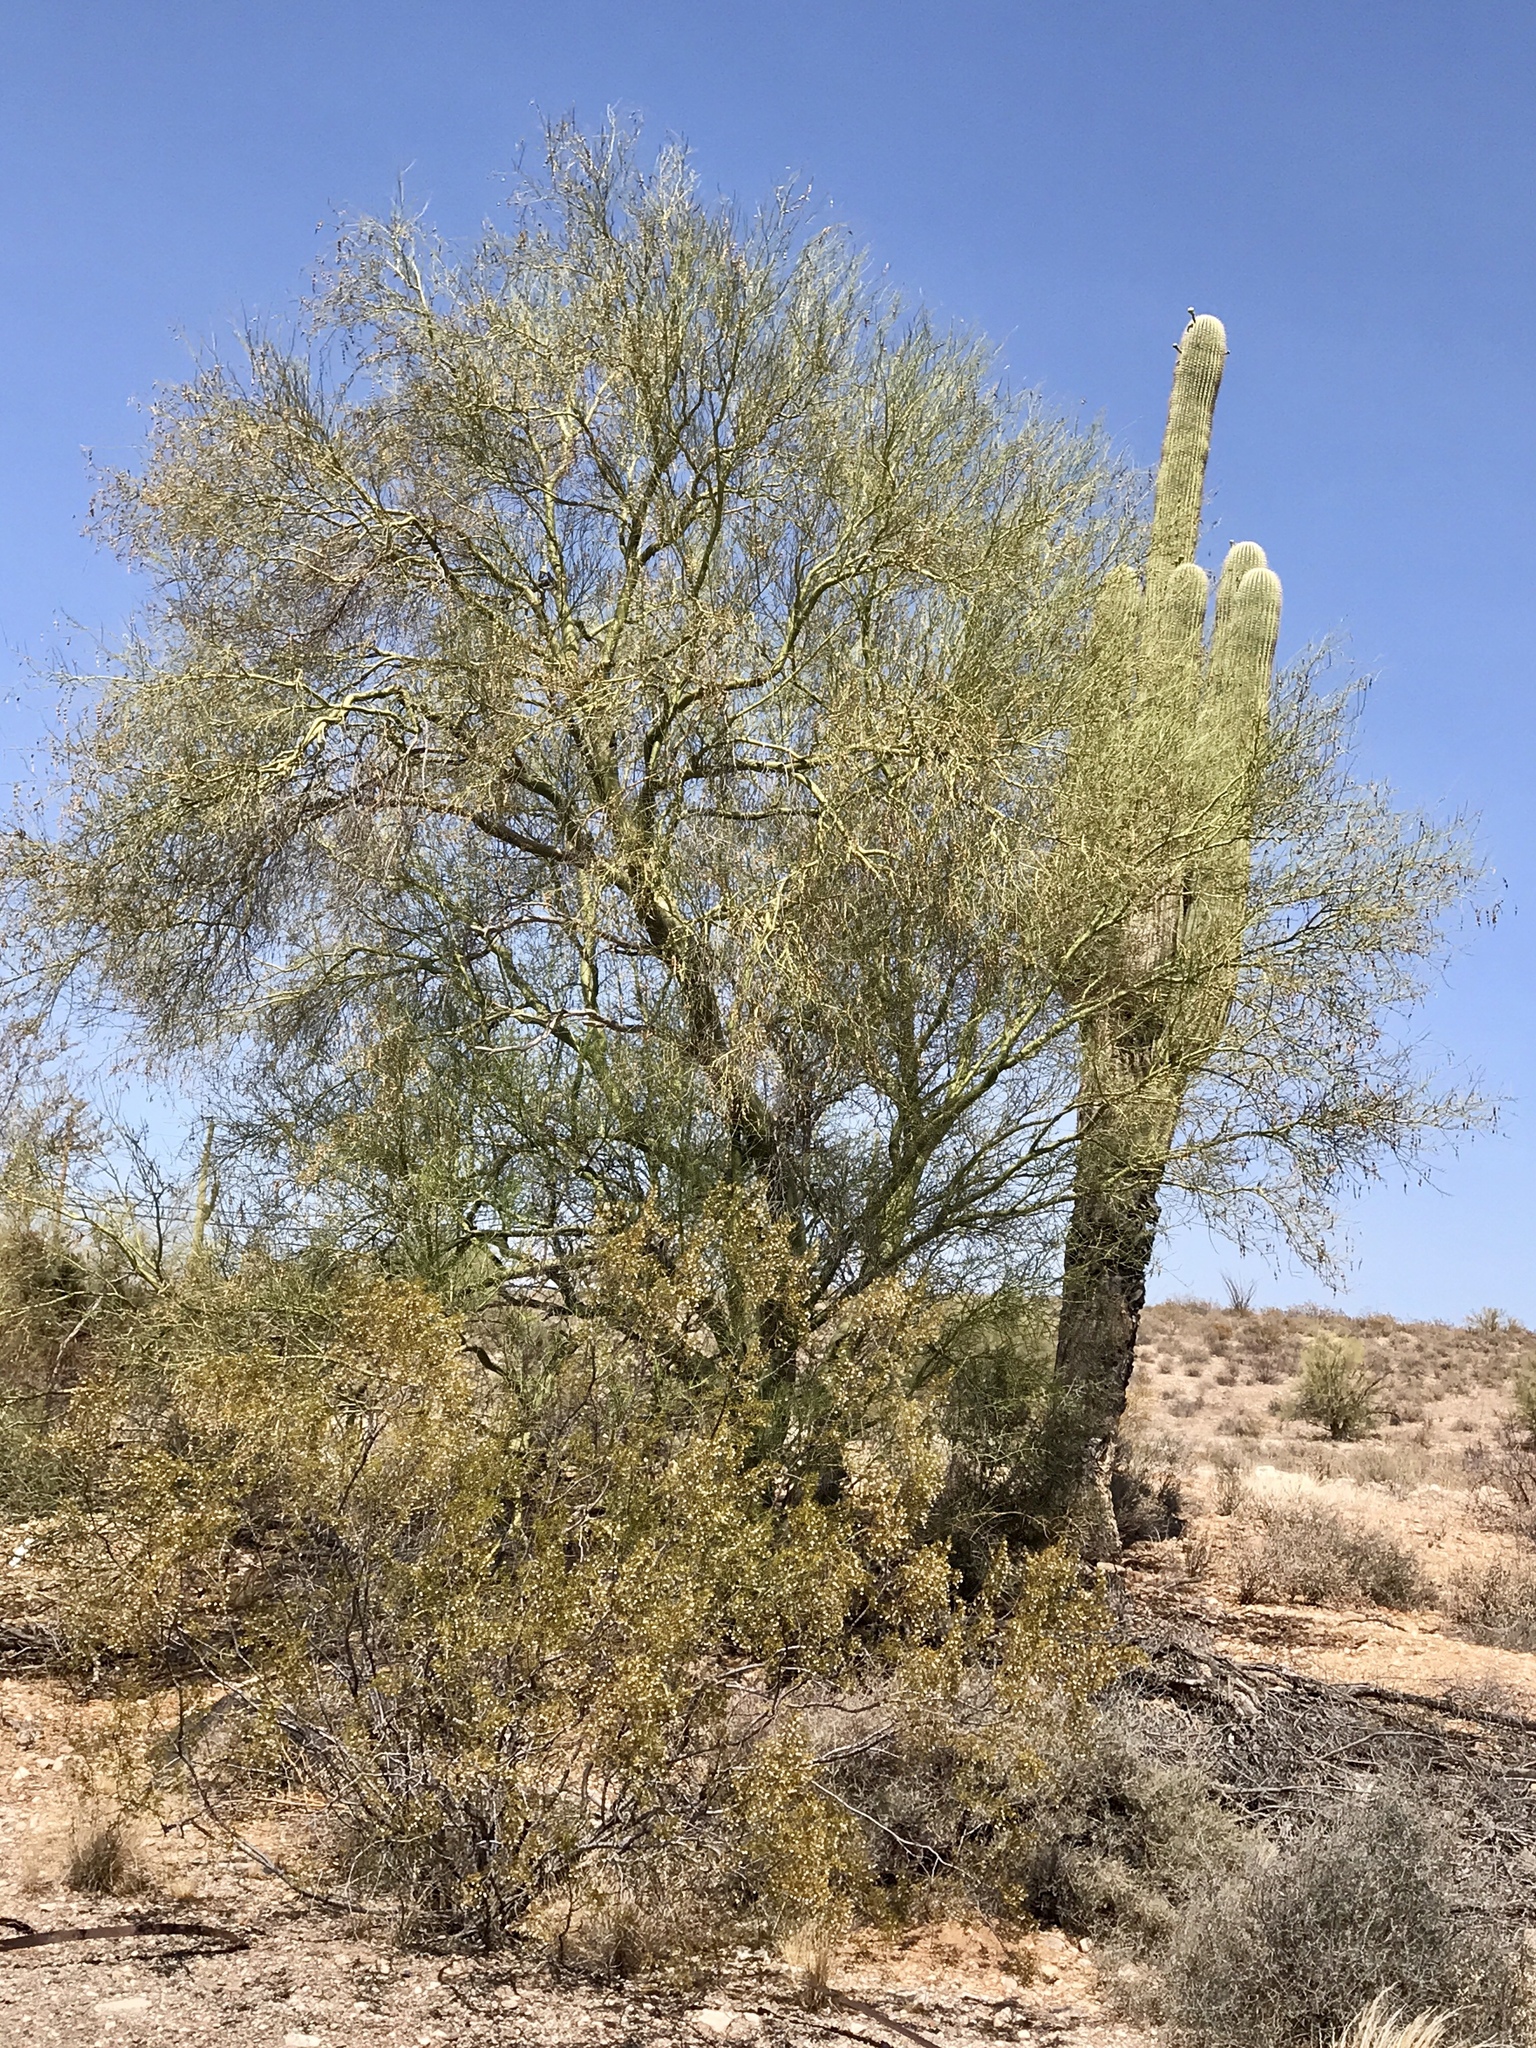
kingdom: Plantae
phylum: Tracheophyta
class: Magnoliopsida
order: Fabales
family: Fabaceae
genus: Parkinsonia
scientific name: Parkinsonia microphylla
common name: Yellow paloverde
